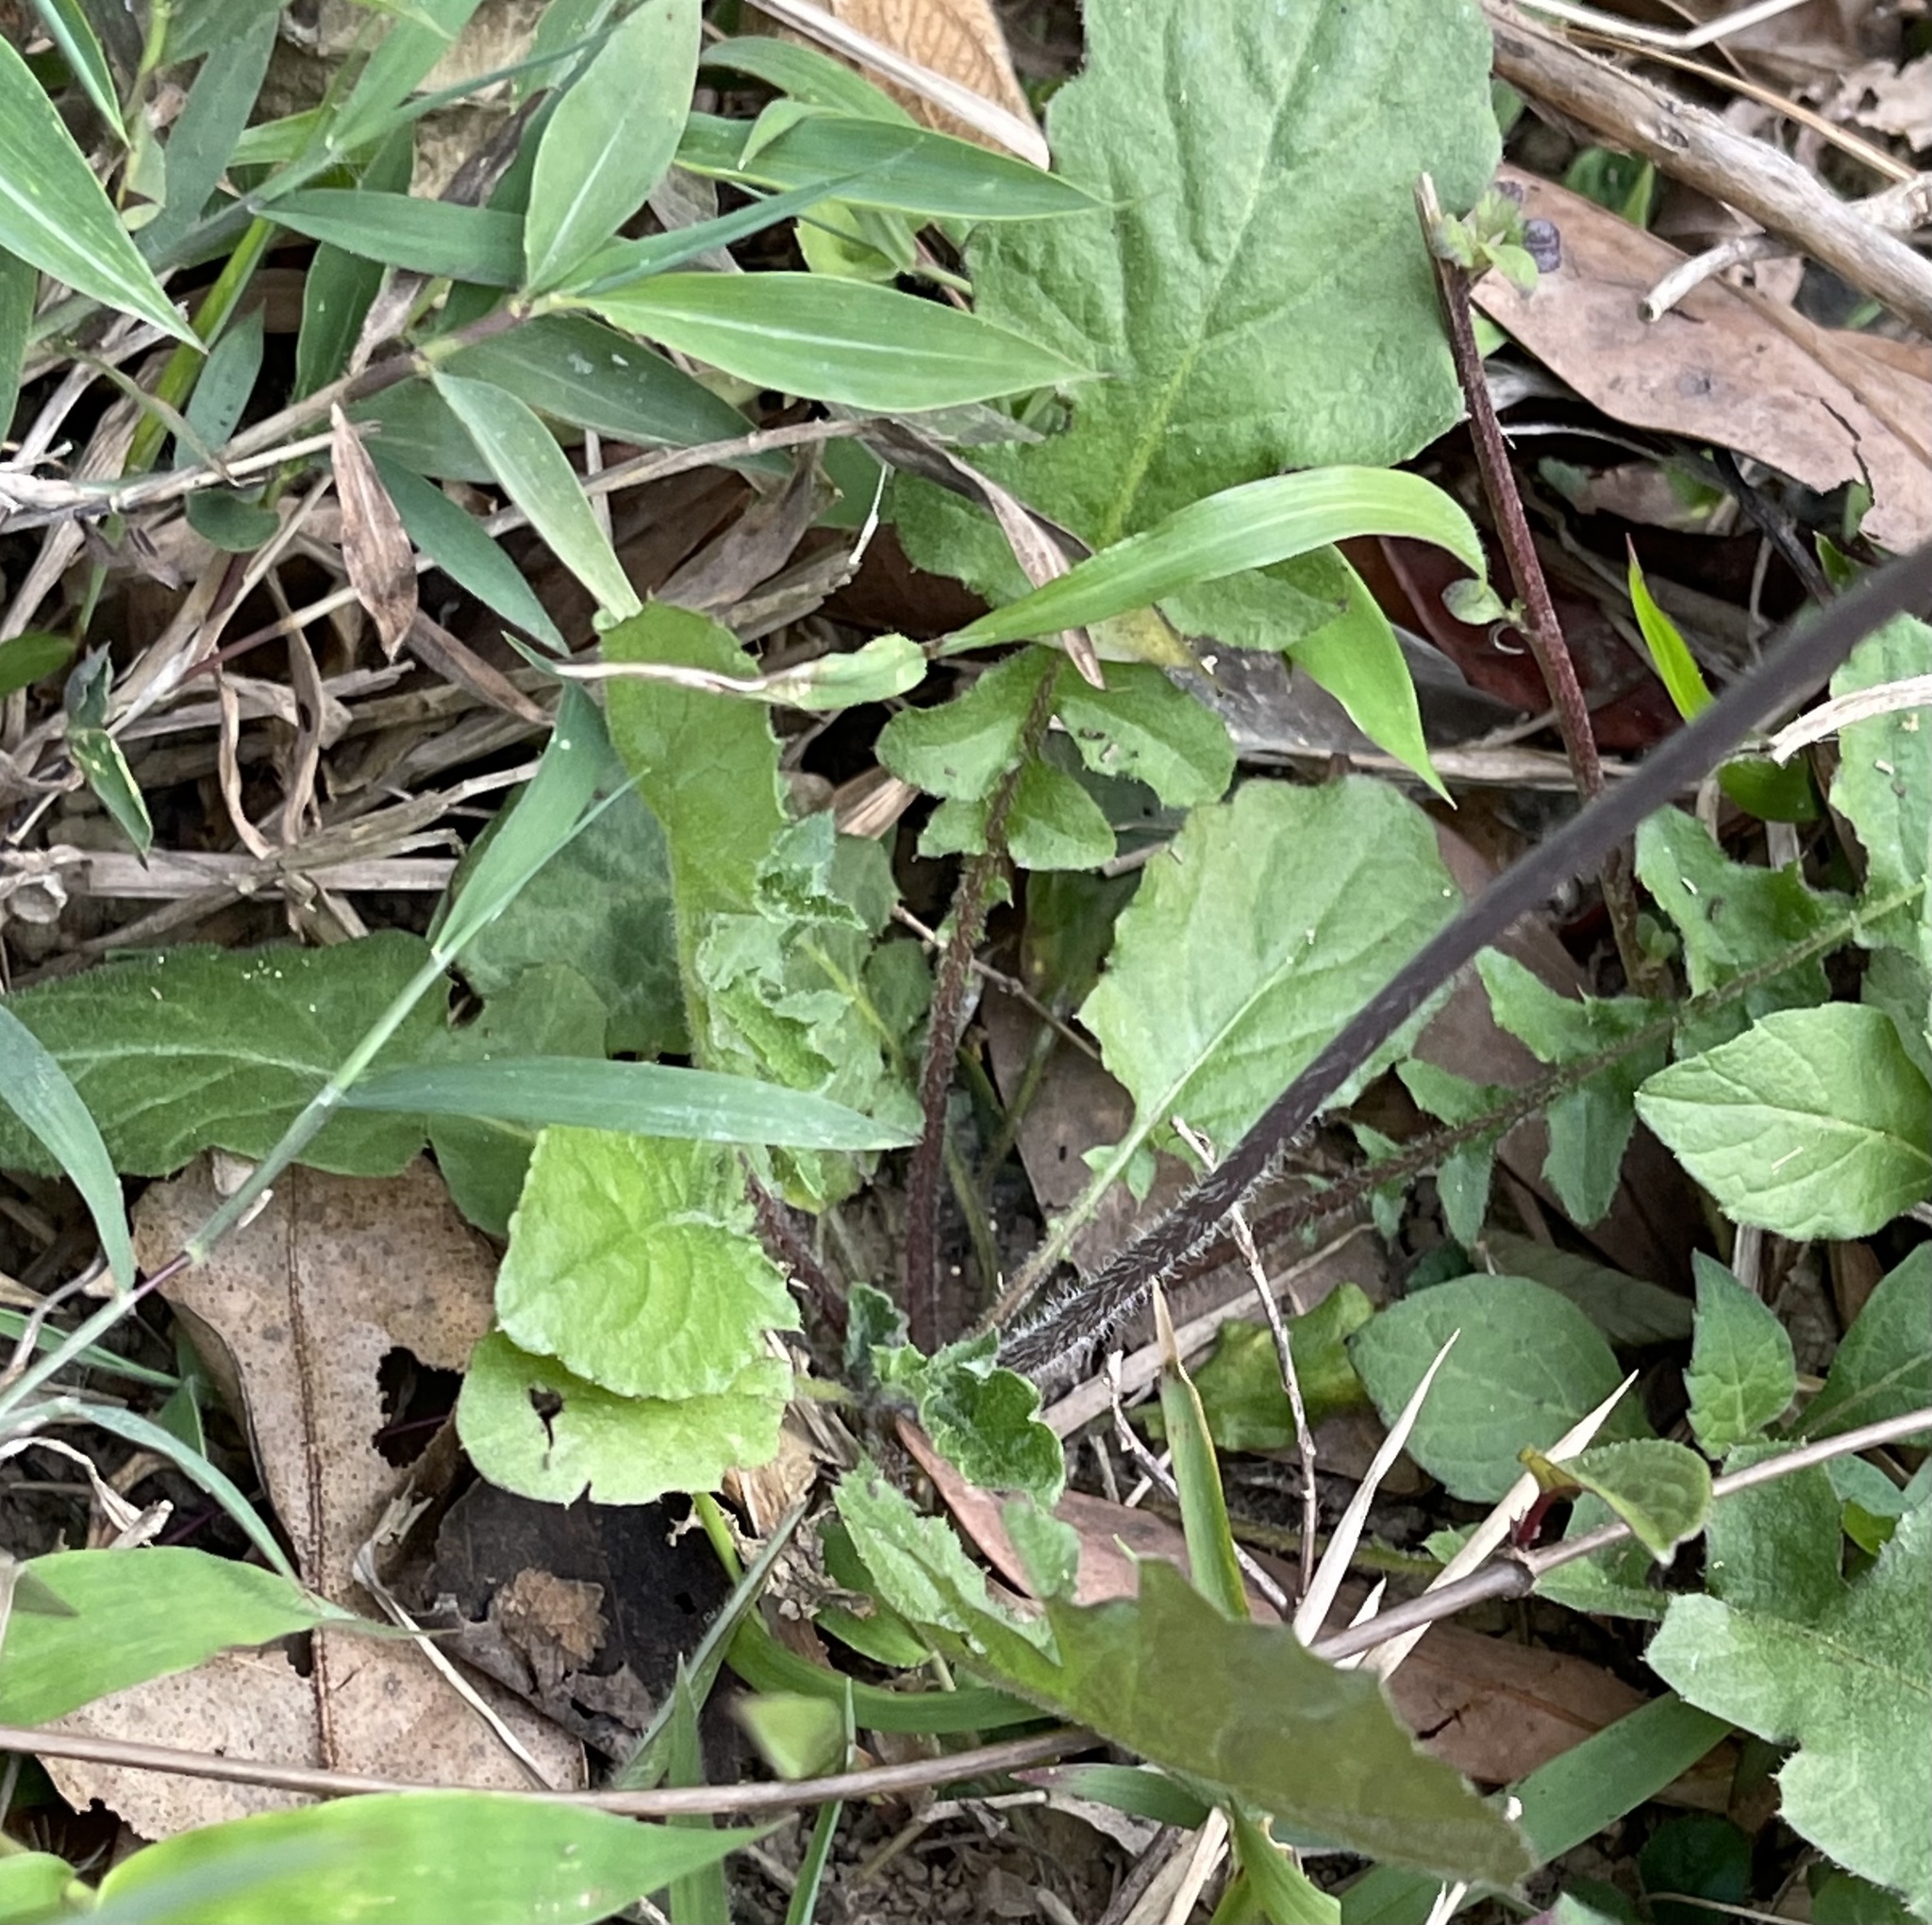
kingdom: Plantae
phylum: Tracheophyta
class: Magnoliopsida
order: Asterales
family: Asteraceae
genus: Youngia
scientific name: Youngia japonica
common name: Oriental false hawksbeard
